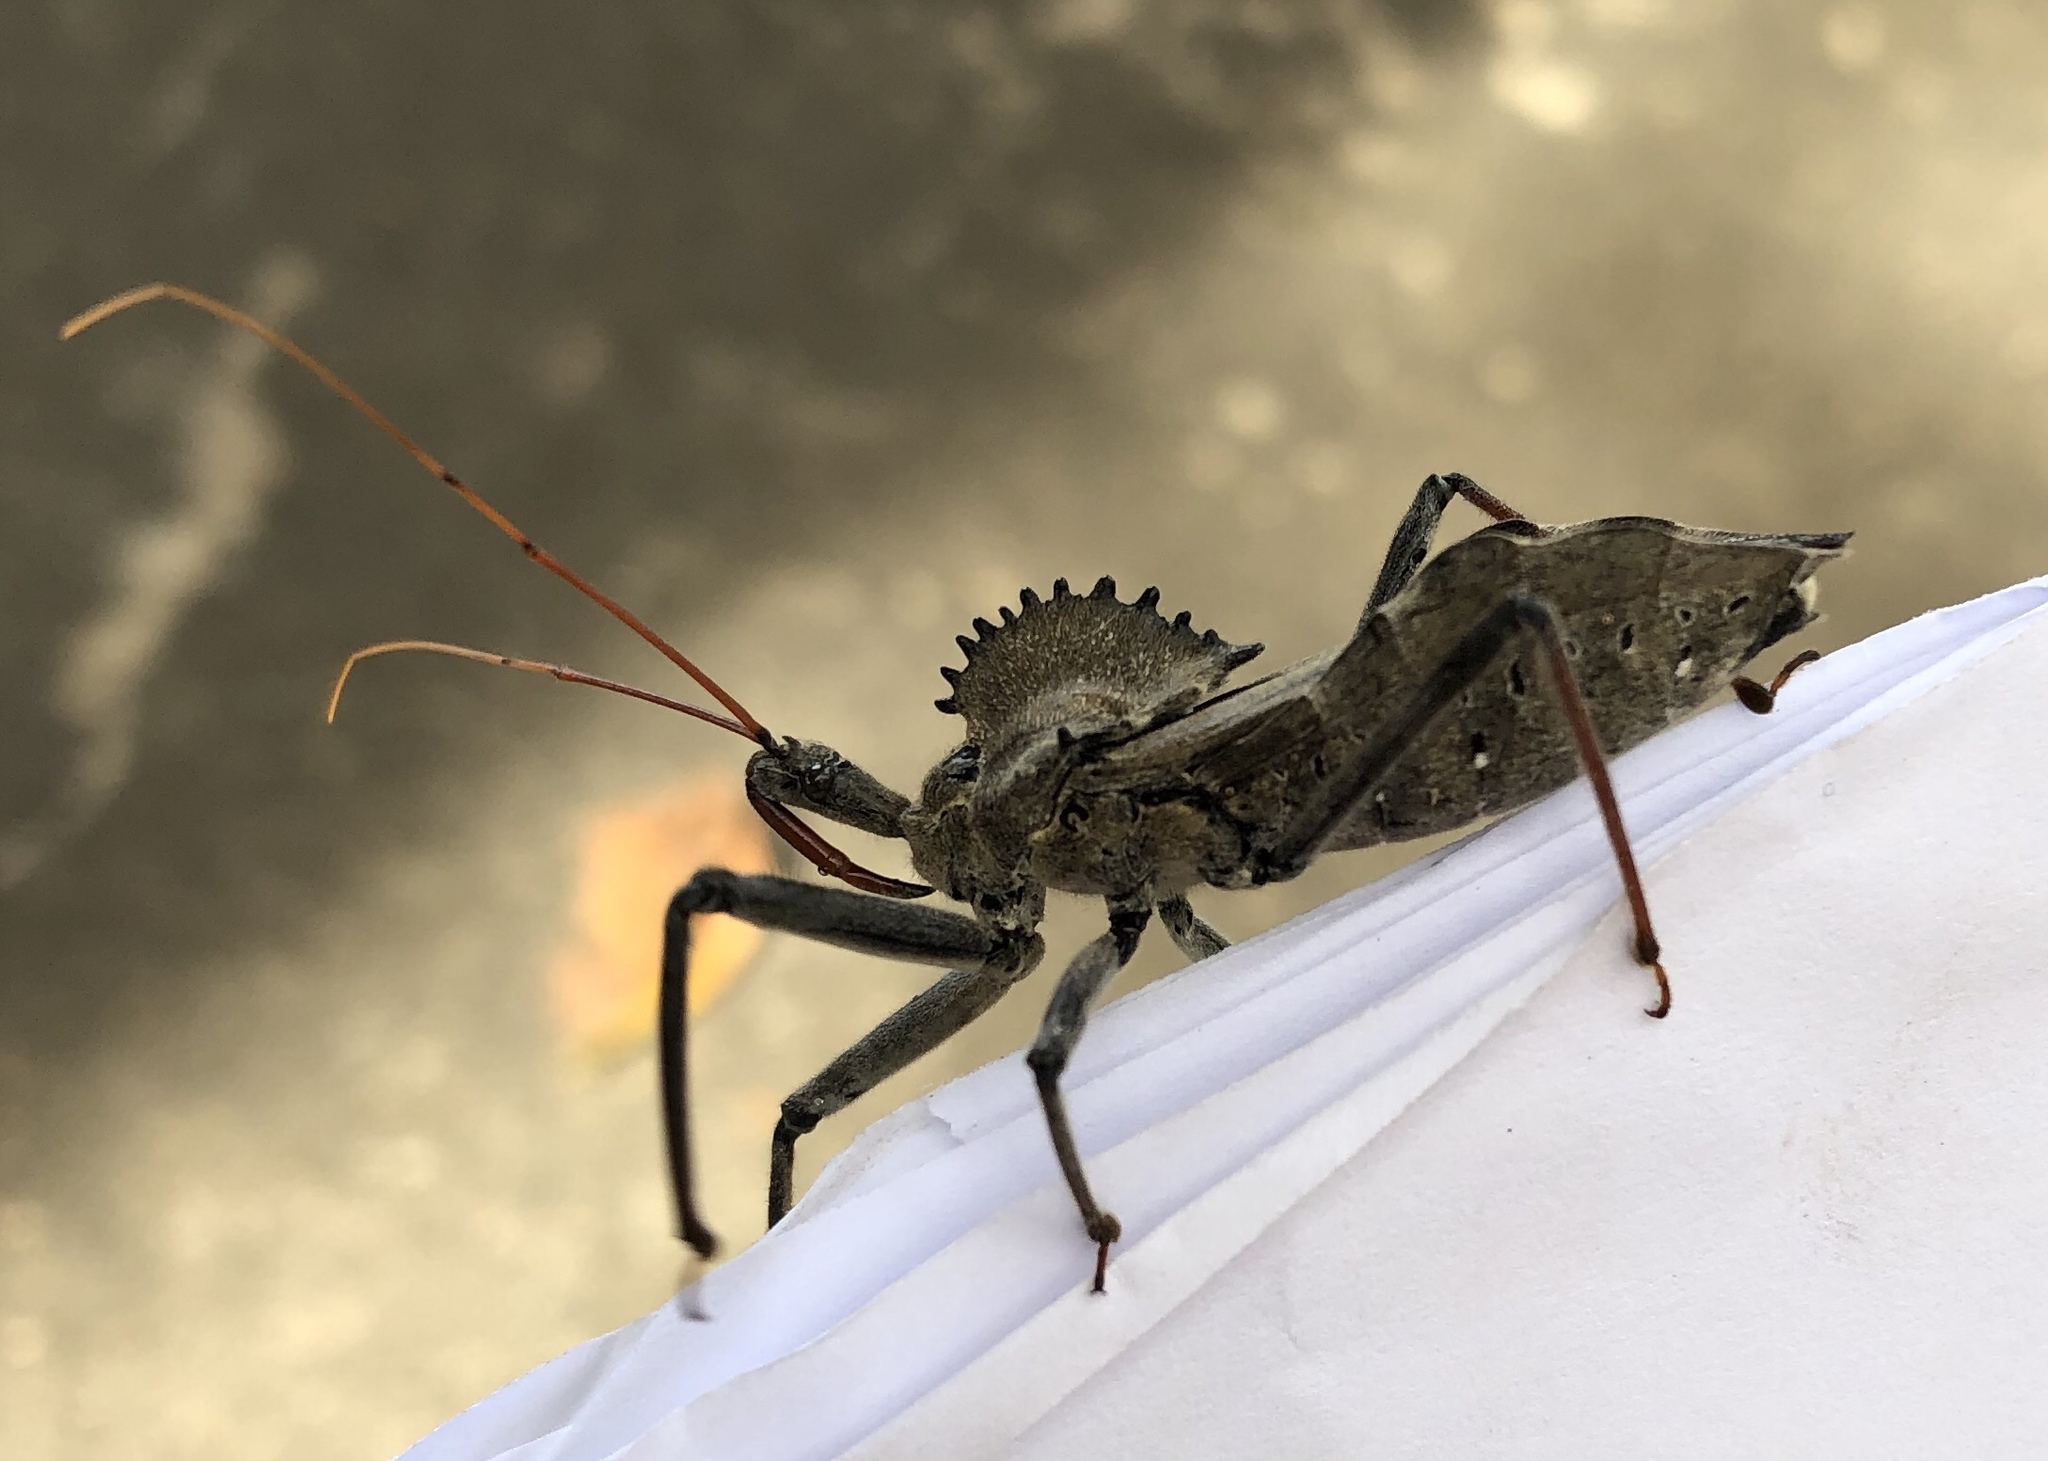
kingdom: Animalia
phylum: Arthropoda
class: Insecta
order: Hemiptera
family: Reduviidae
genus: Arilus
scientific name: Arilus cristatus
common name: North american wheel bug
